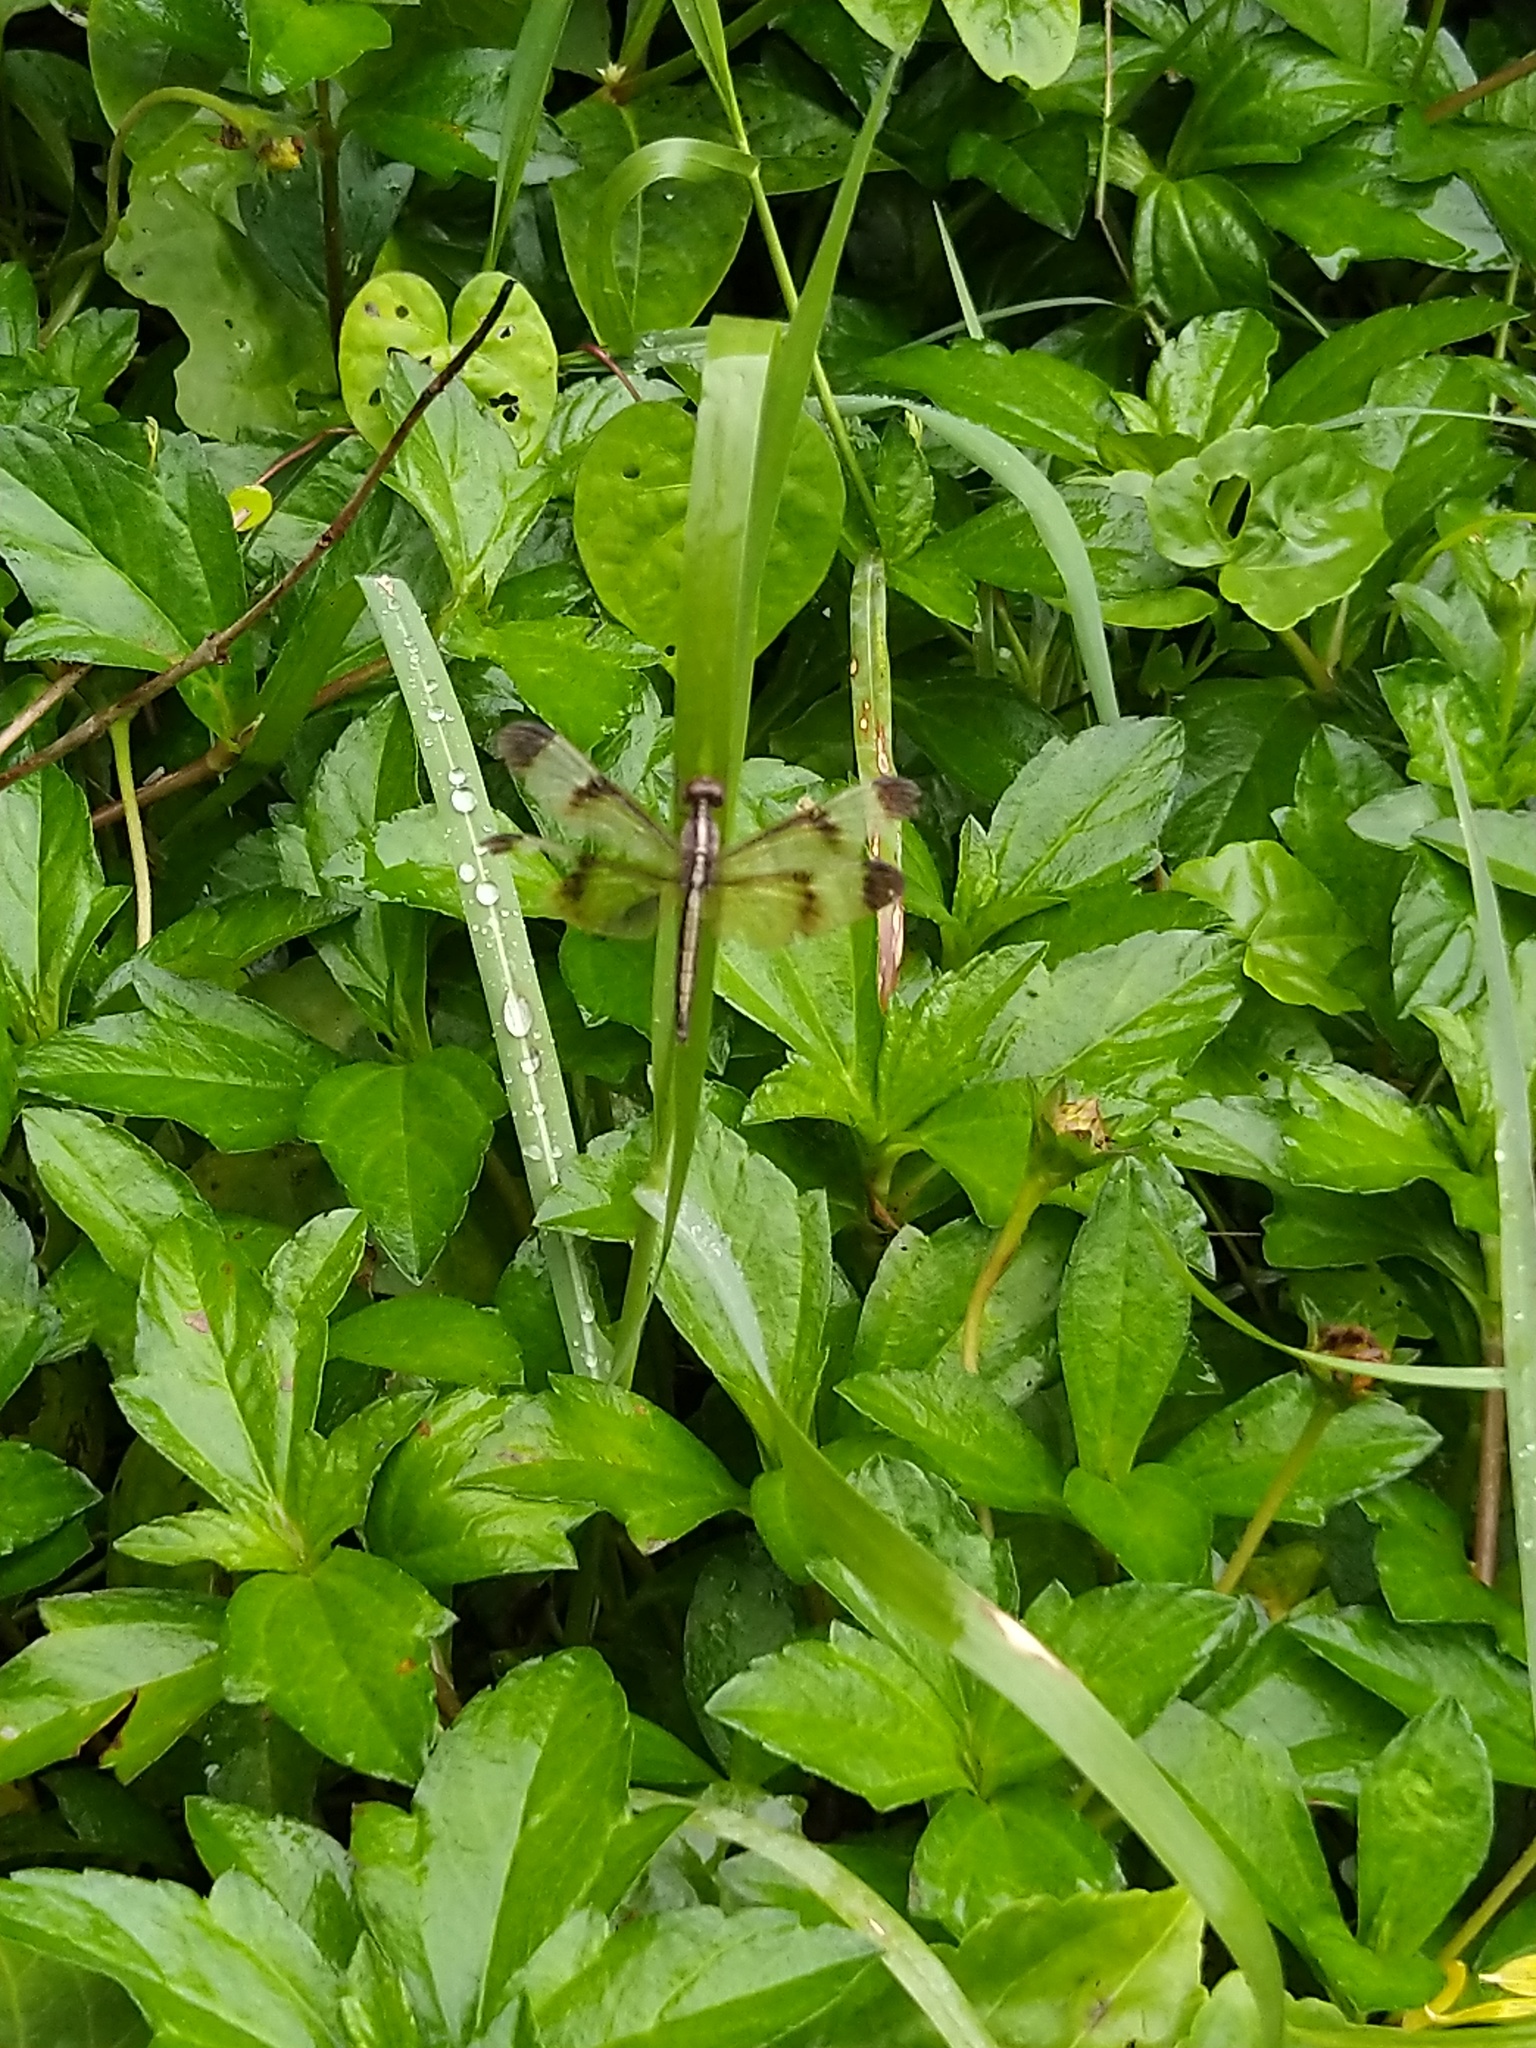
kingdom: Animalia
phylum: Arthropoda
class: Insecta
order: Odonata
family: Libellulidae
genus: Neurothemis
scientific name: Neurothemis tullia
